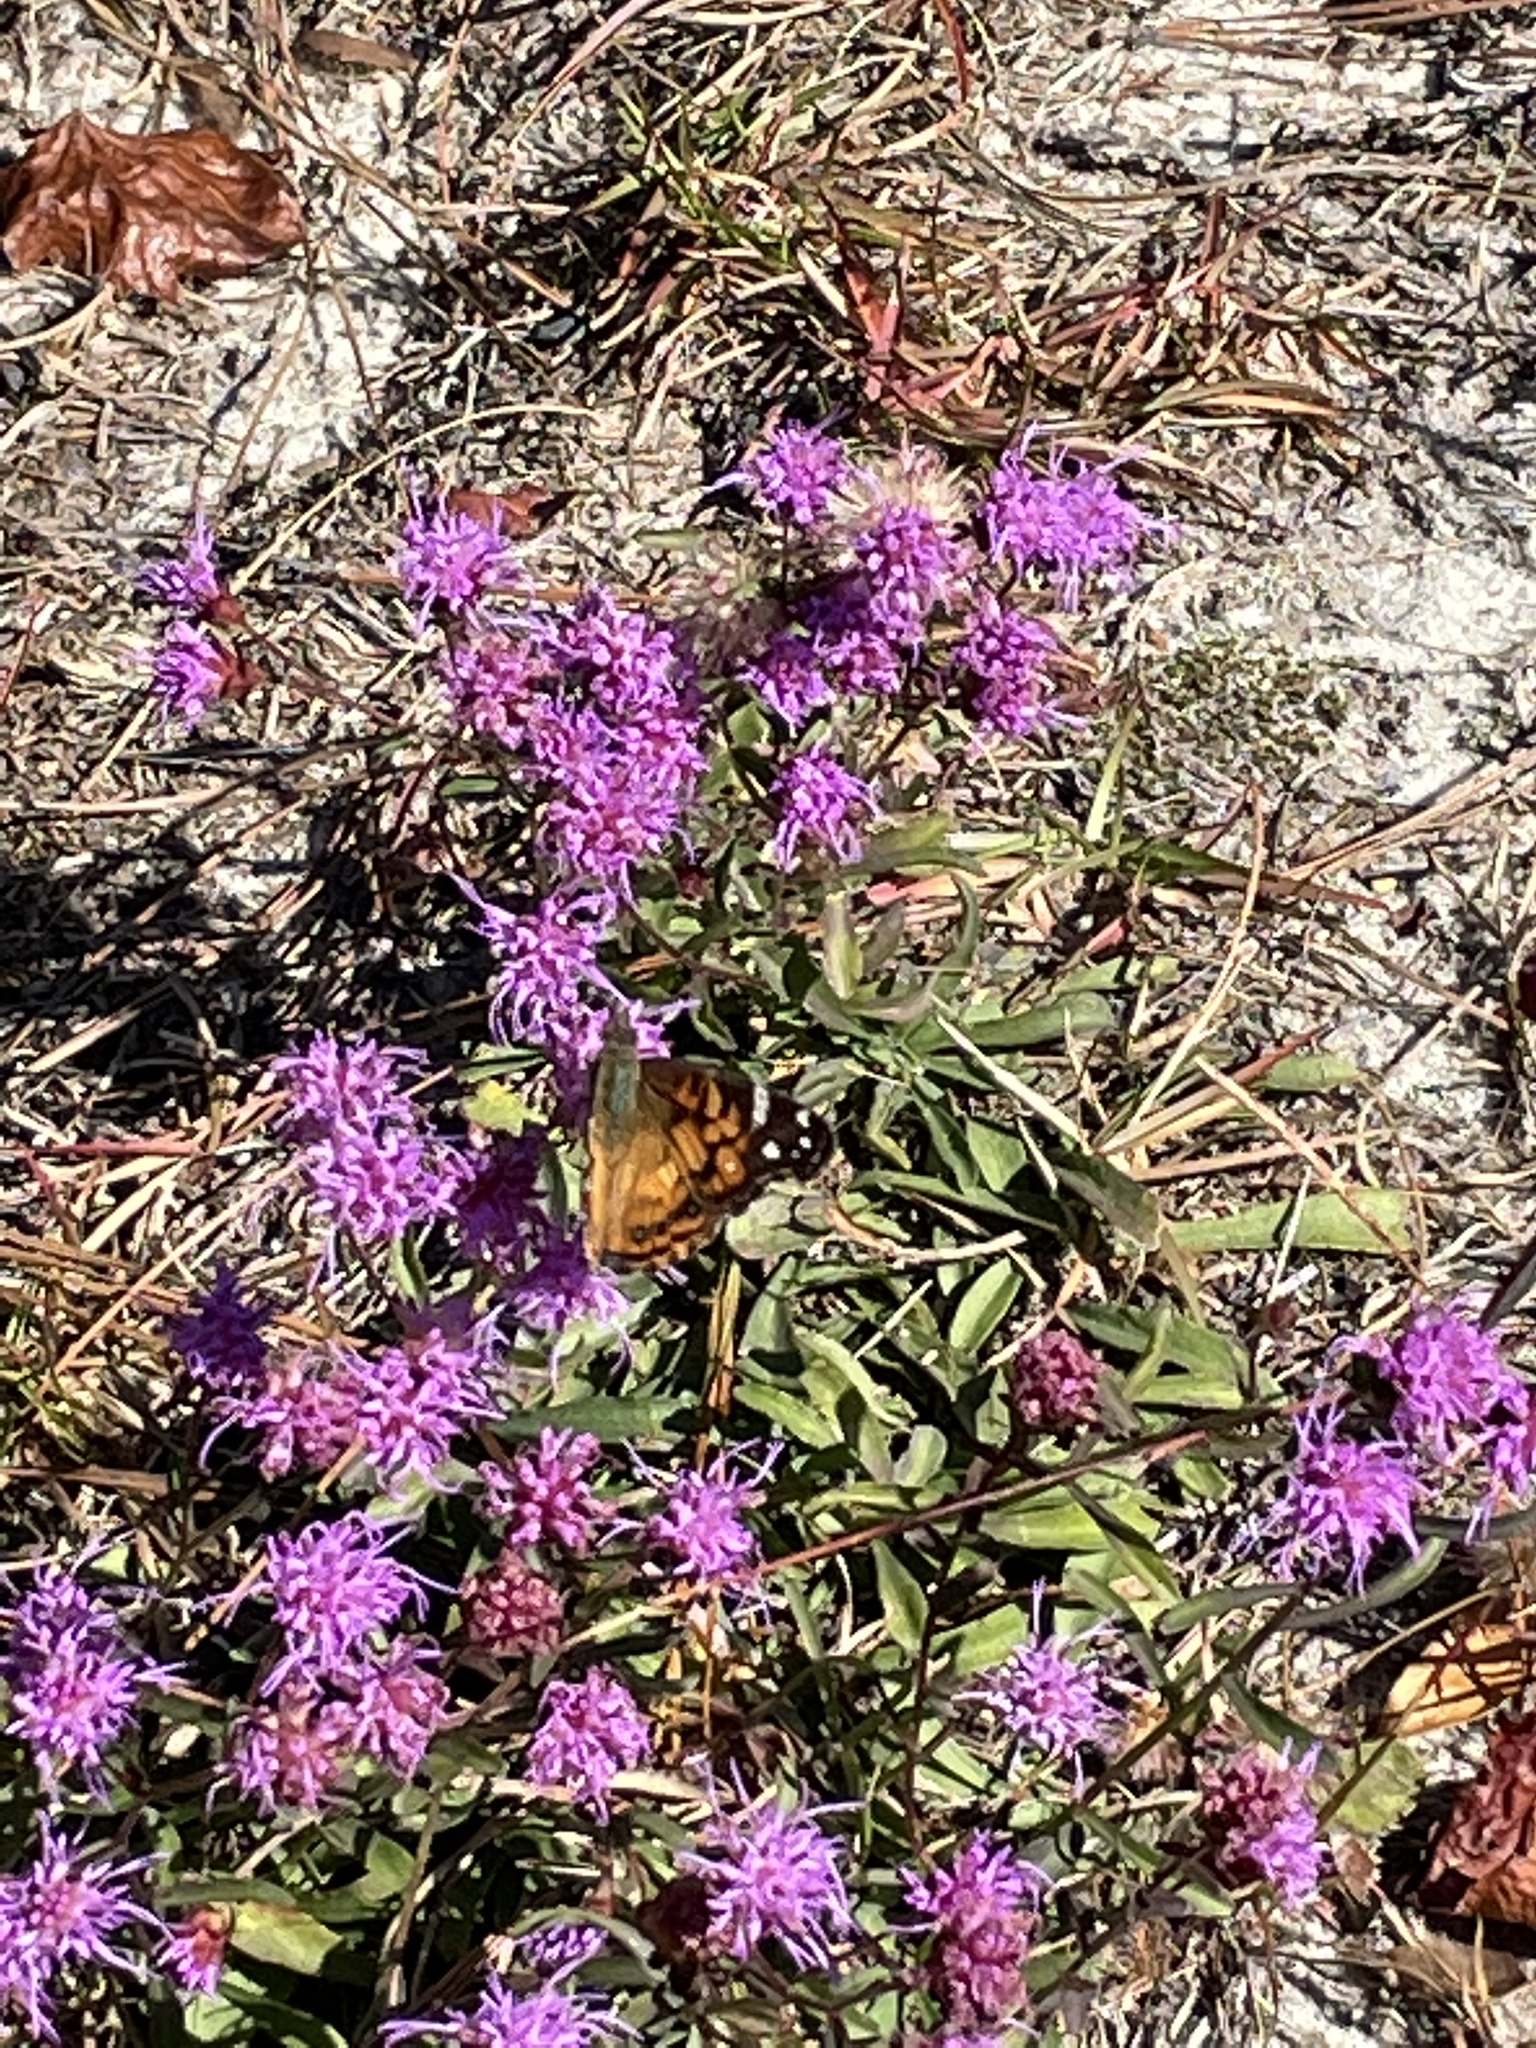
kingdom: Plantae
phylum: Tracheophyta
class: Magnoliopsida
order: Asterales
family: Asteraceae
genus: Carphephorus
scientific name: Carphephorus bellidifolius
